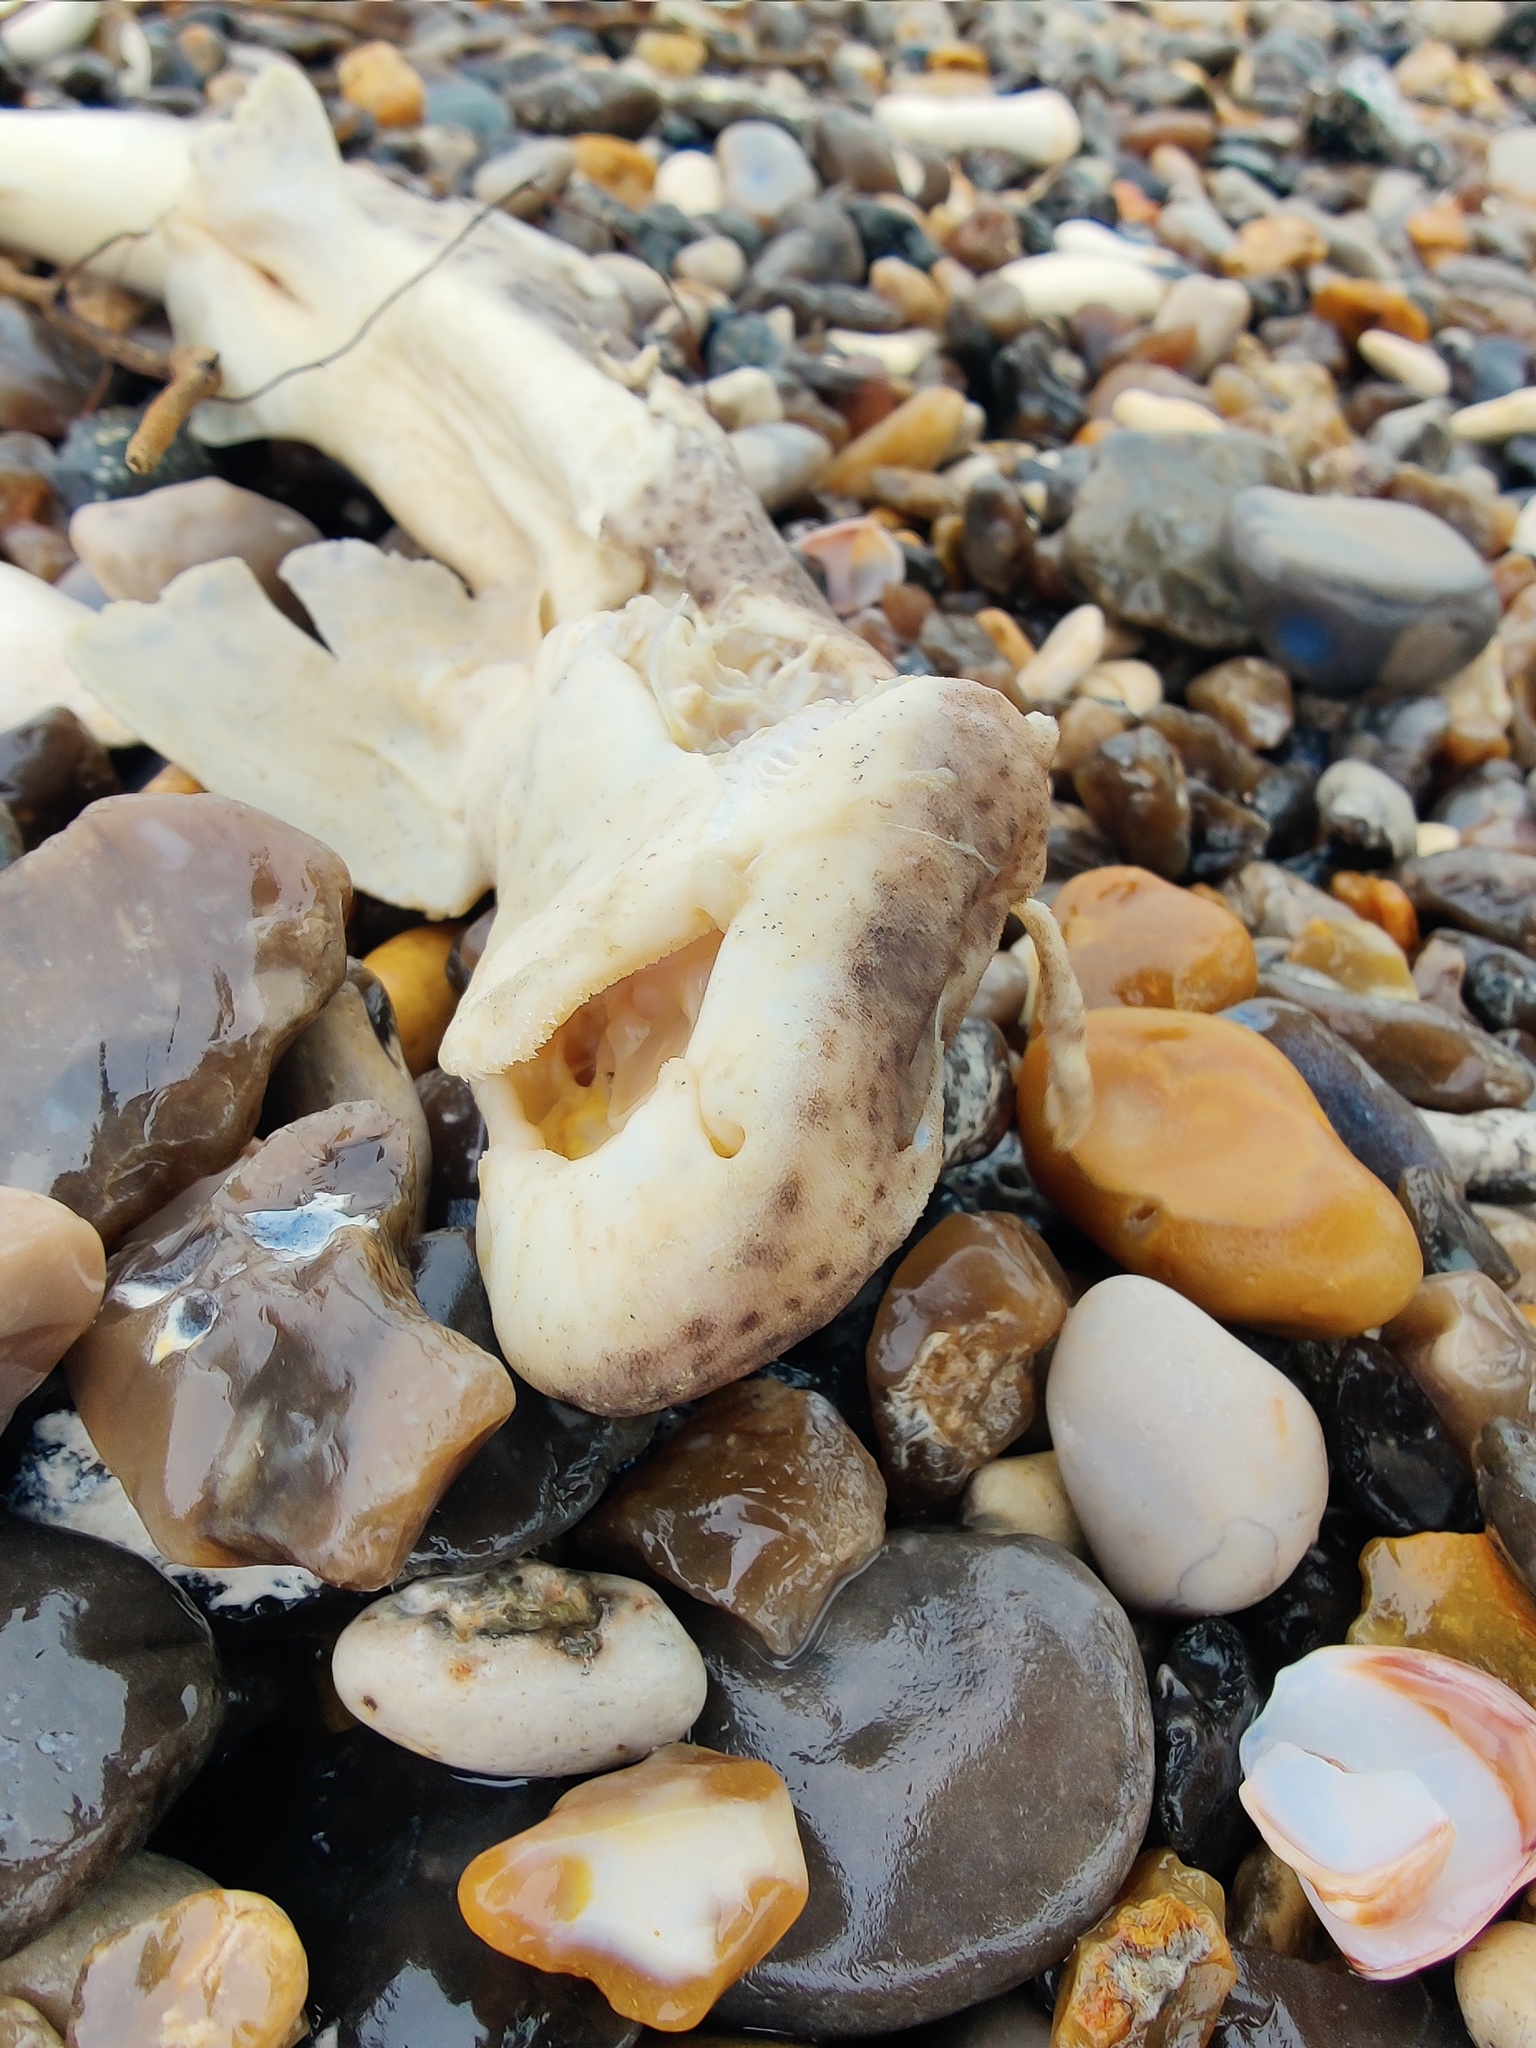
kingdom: Animalia
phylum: Chordata
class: Elasmobranchii
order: Carcharhiniformes
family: Scyliorhinidae
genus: Scyliorhinus
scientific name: Scyliorhinus canicula
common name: Lesser spotted dogfish
